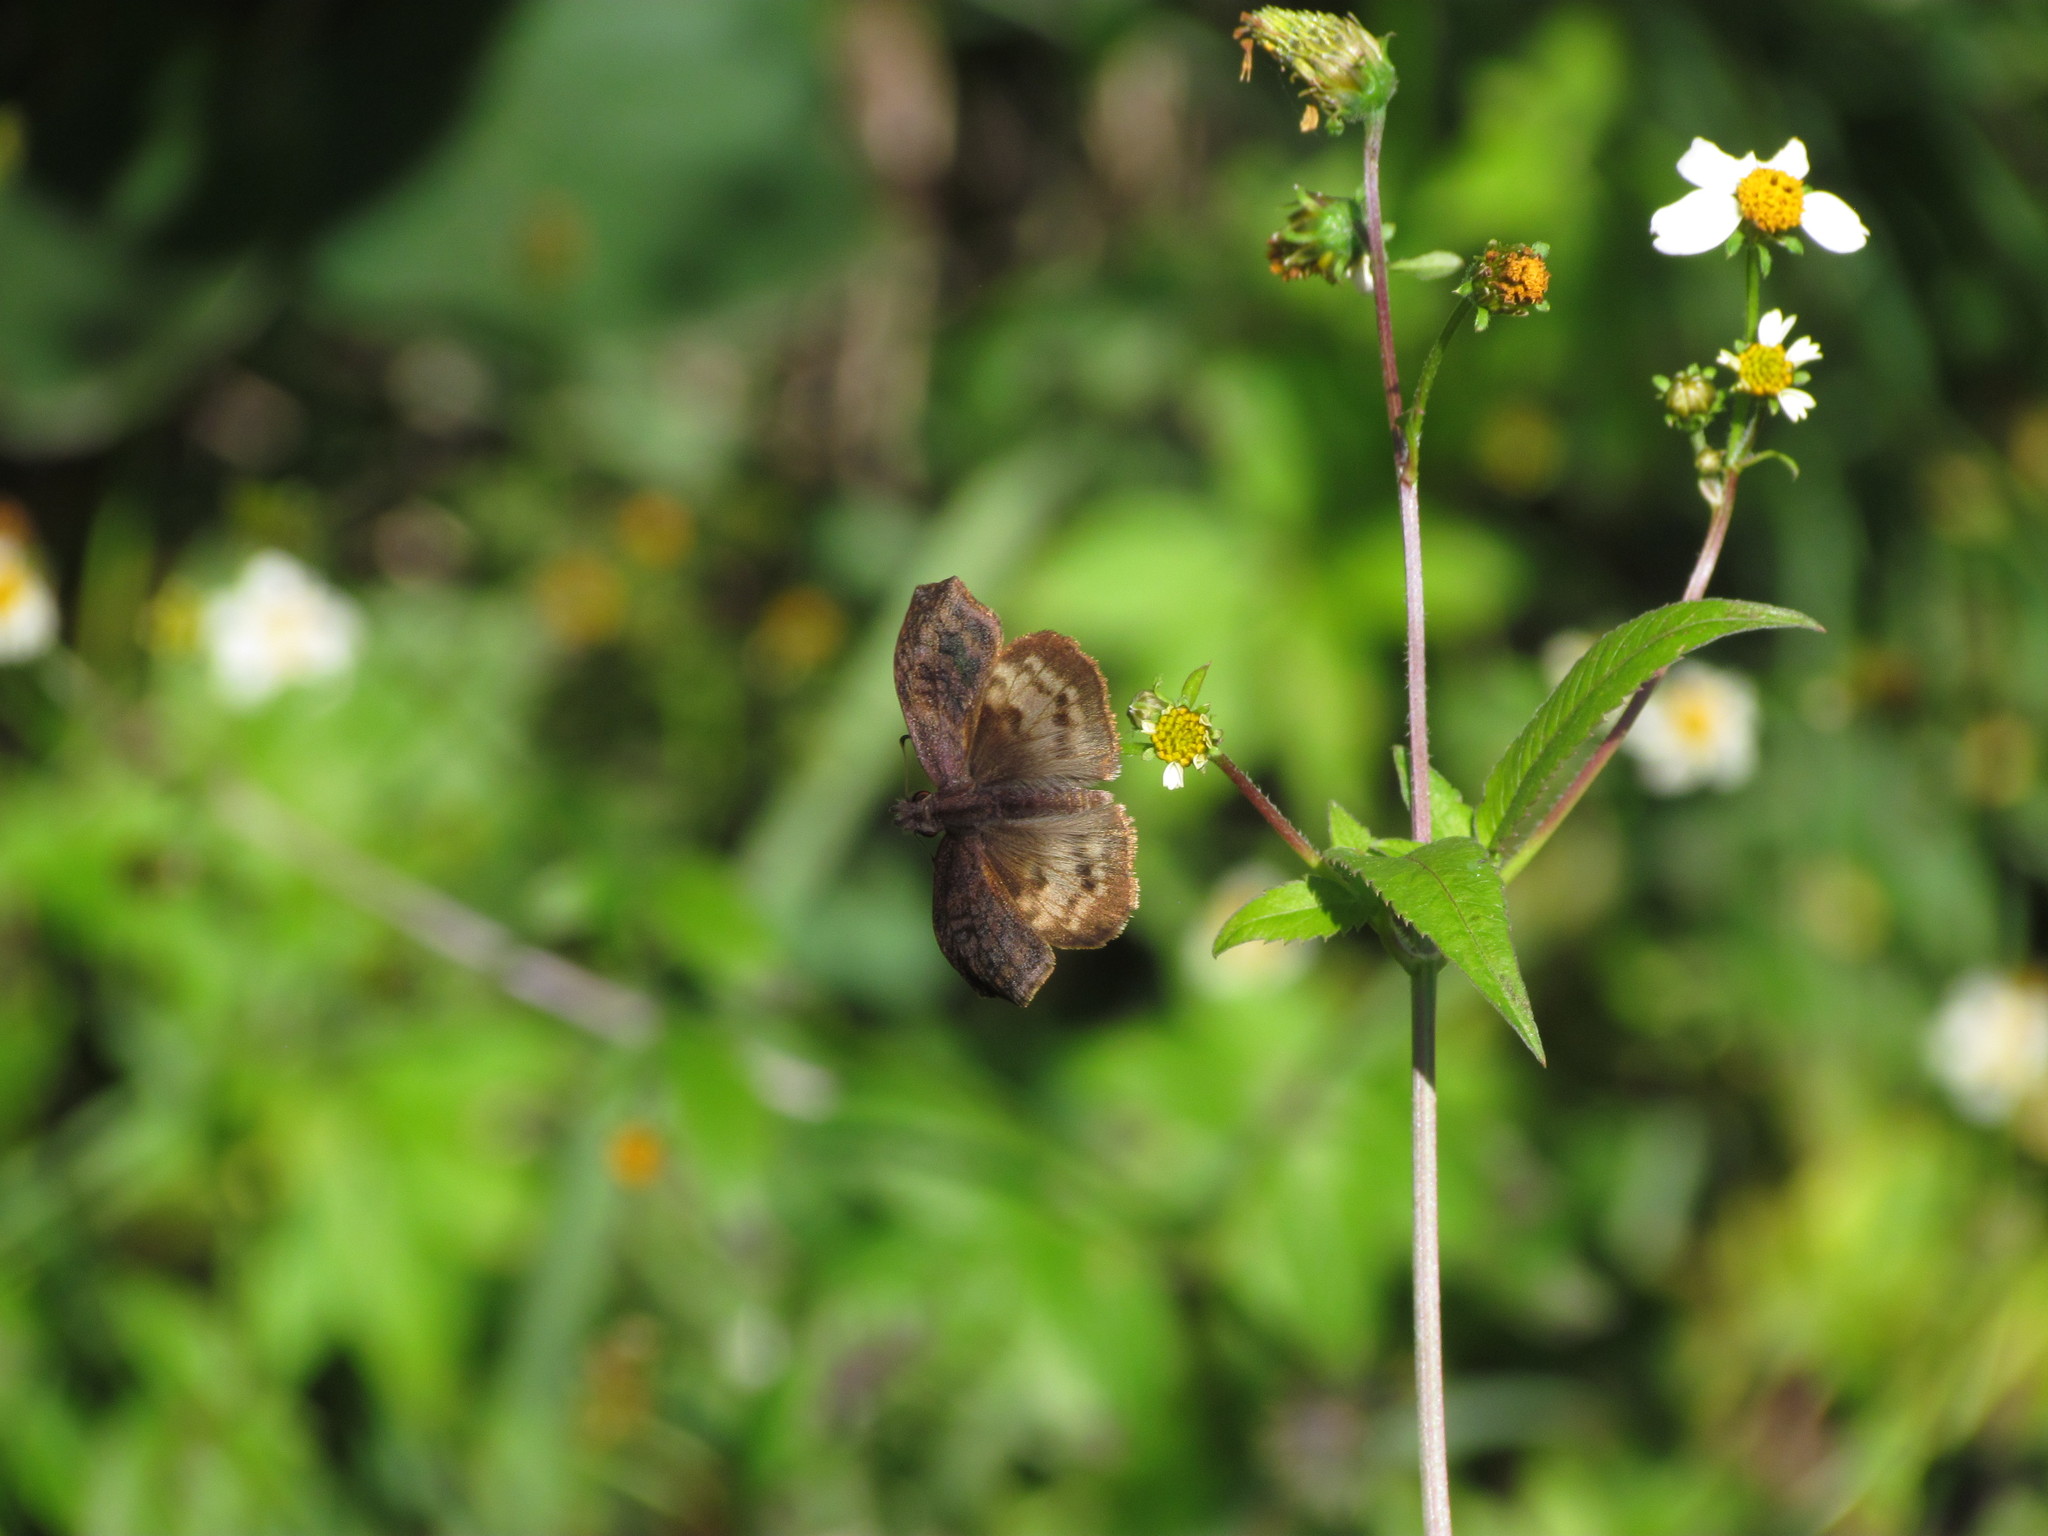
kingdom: Animalia
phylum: Arthropoda
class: Insecta
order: Lepidoptera
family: Hesperiidae
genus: Theagenes
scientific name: Theagenes dichrous
